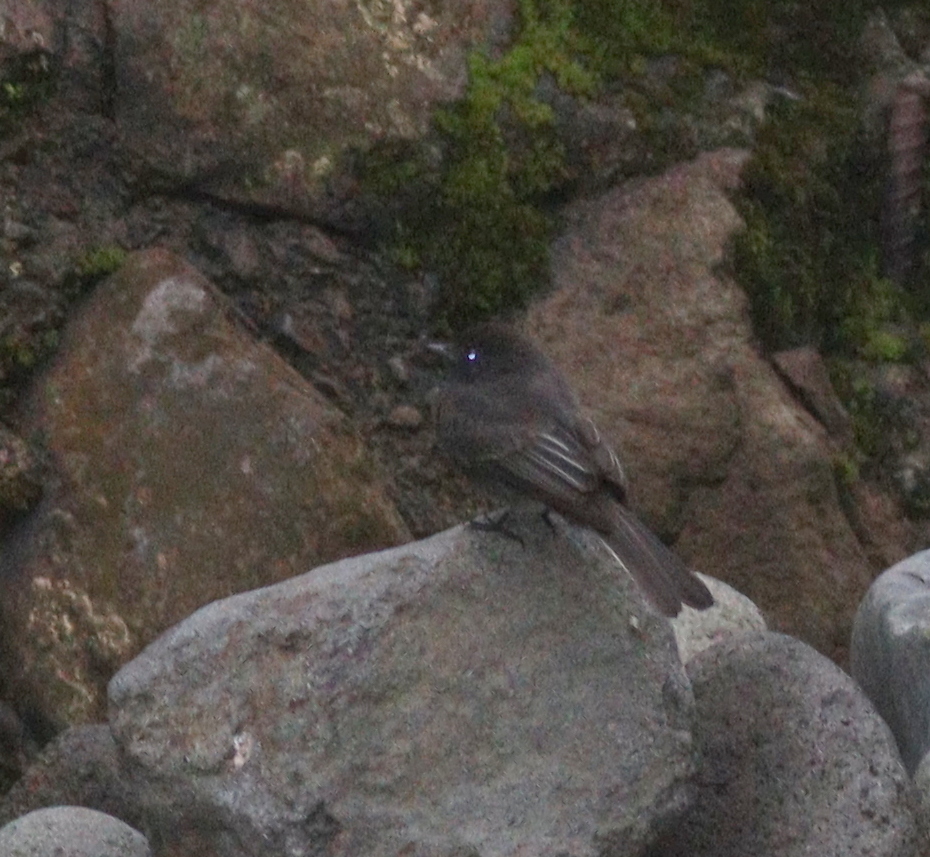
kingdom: Animalia
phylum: Chordata
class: Aves
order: Passeriformes
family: Tyrannidae
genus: Sayornis
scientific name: Sayornis nigricans
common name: Black phoebe
